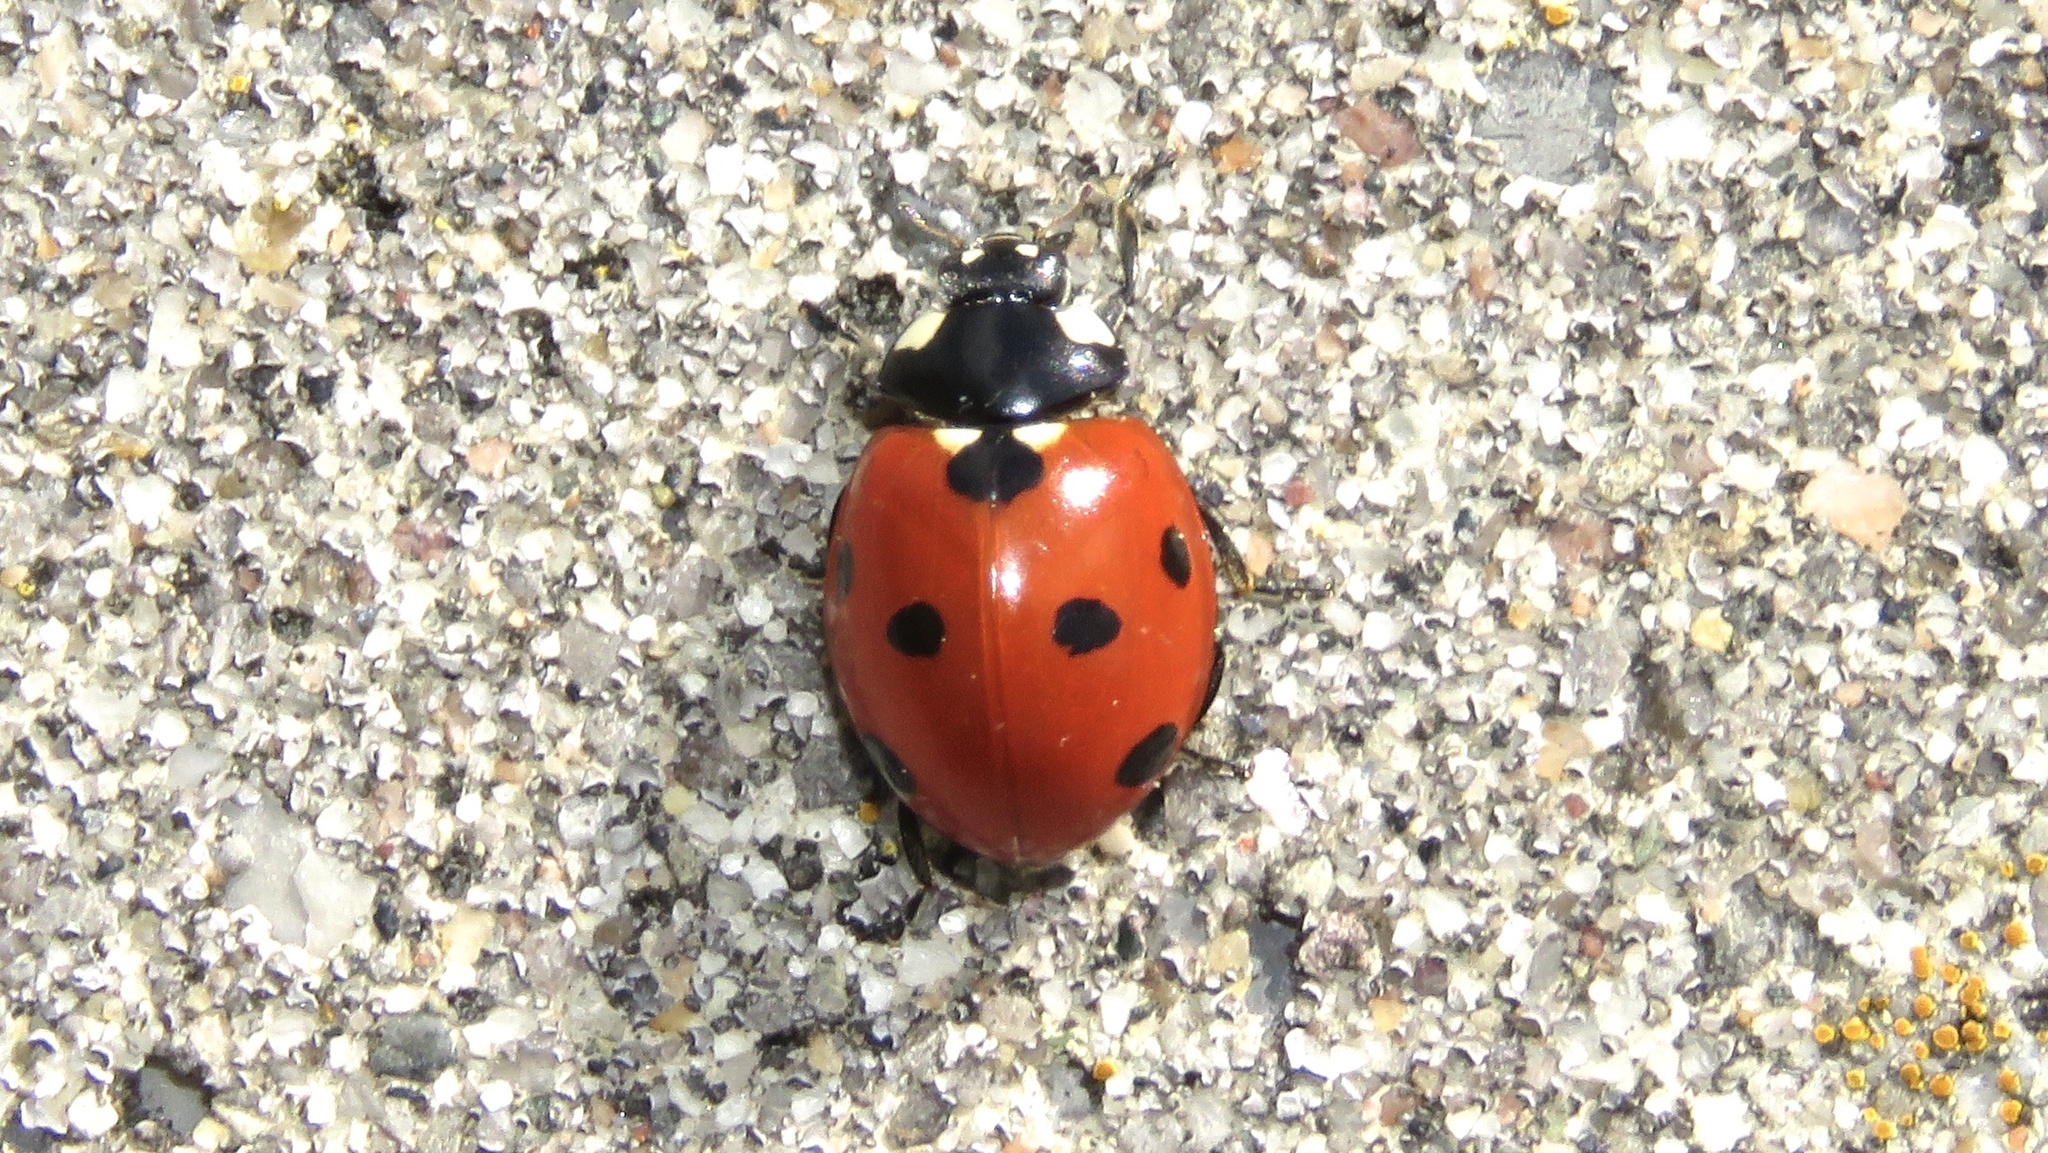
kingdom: Animalia
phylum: Arthropoda
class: Insecta
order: Coleoptera
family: Coccinellidae
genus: Coccinella
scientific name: Coccinella septempunctata
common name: Sevenspotted lady beetle
